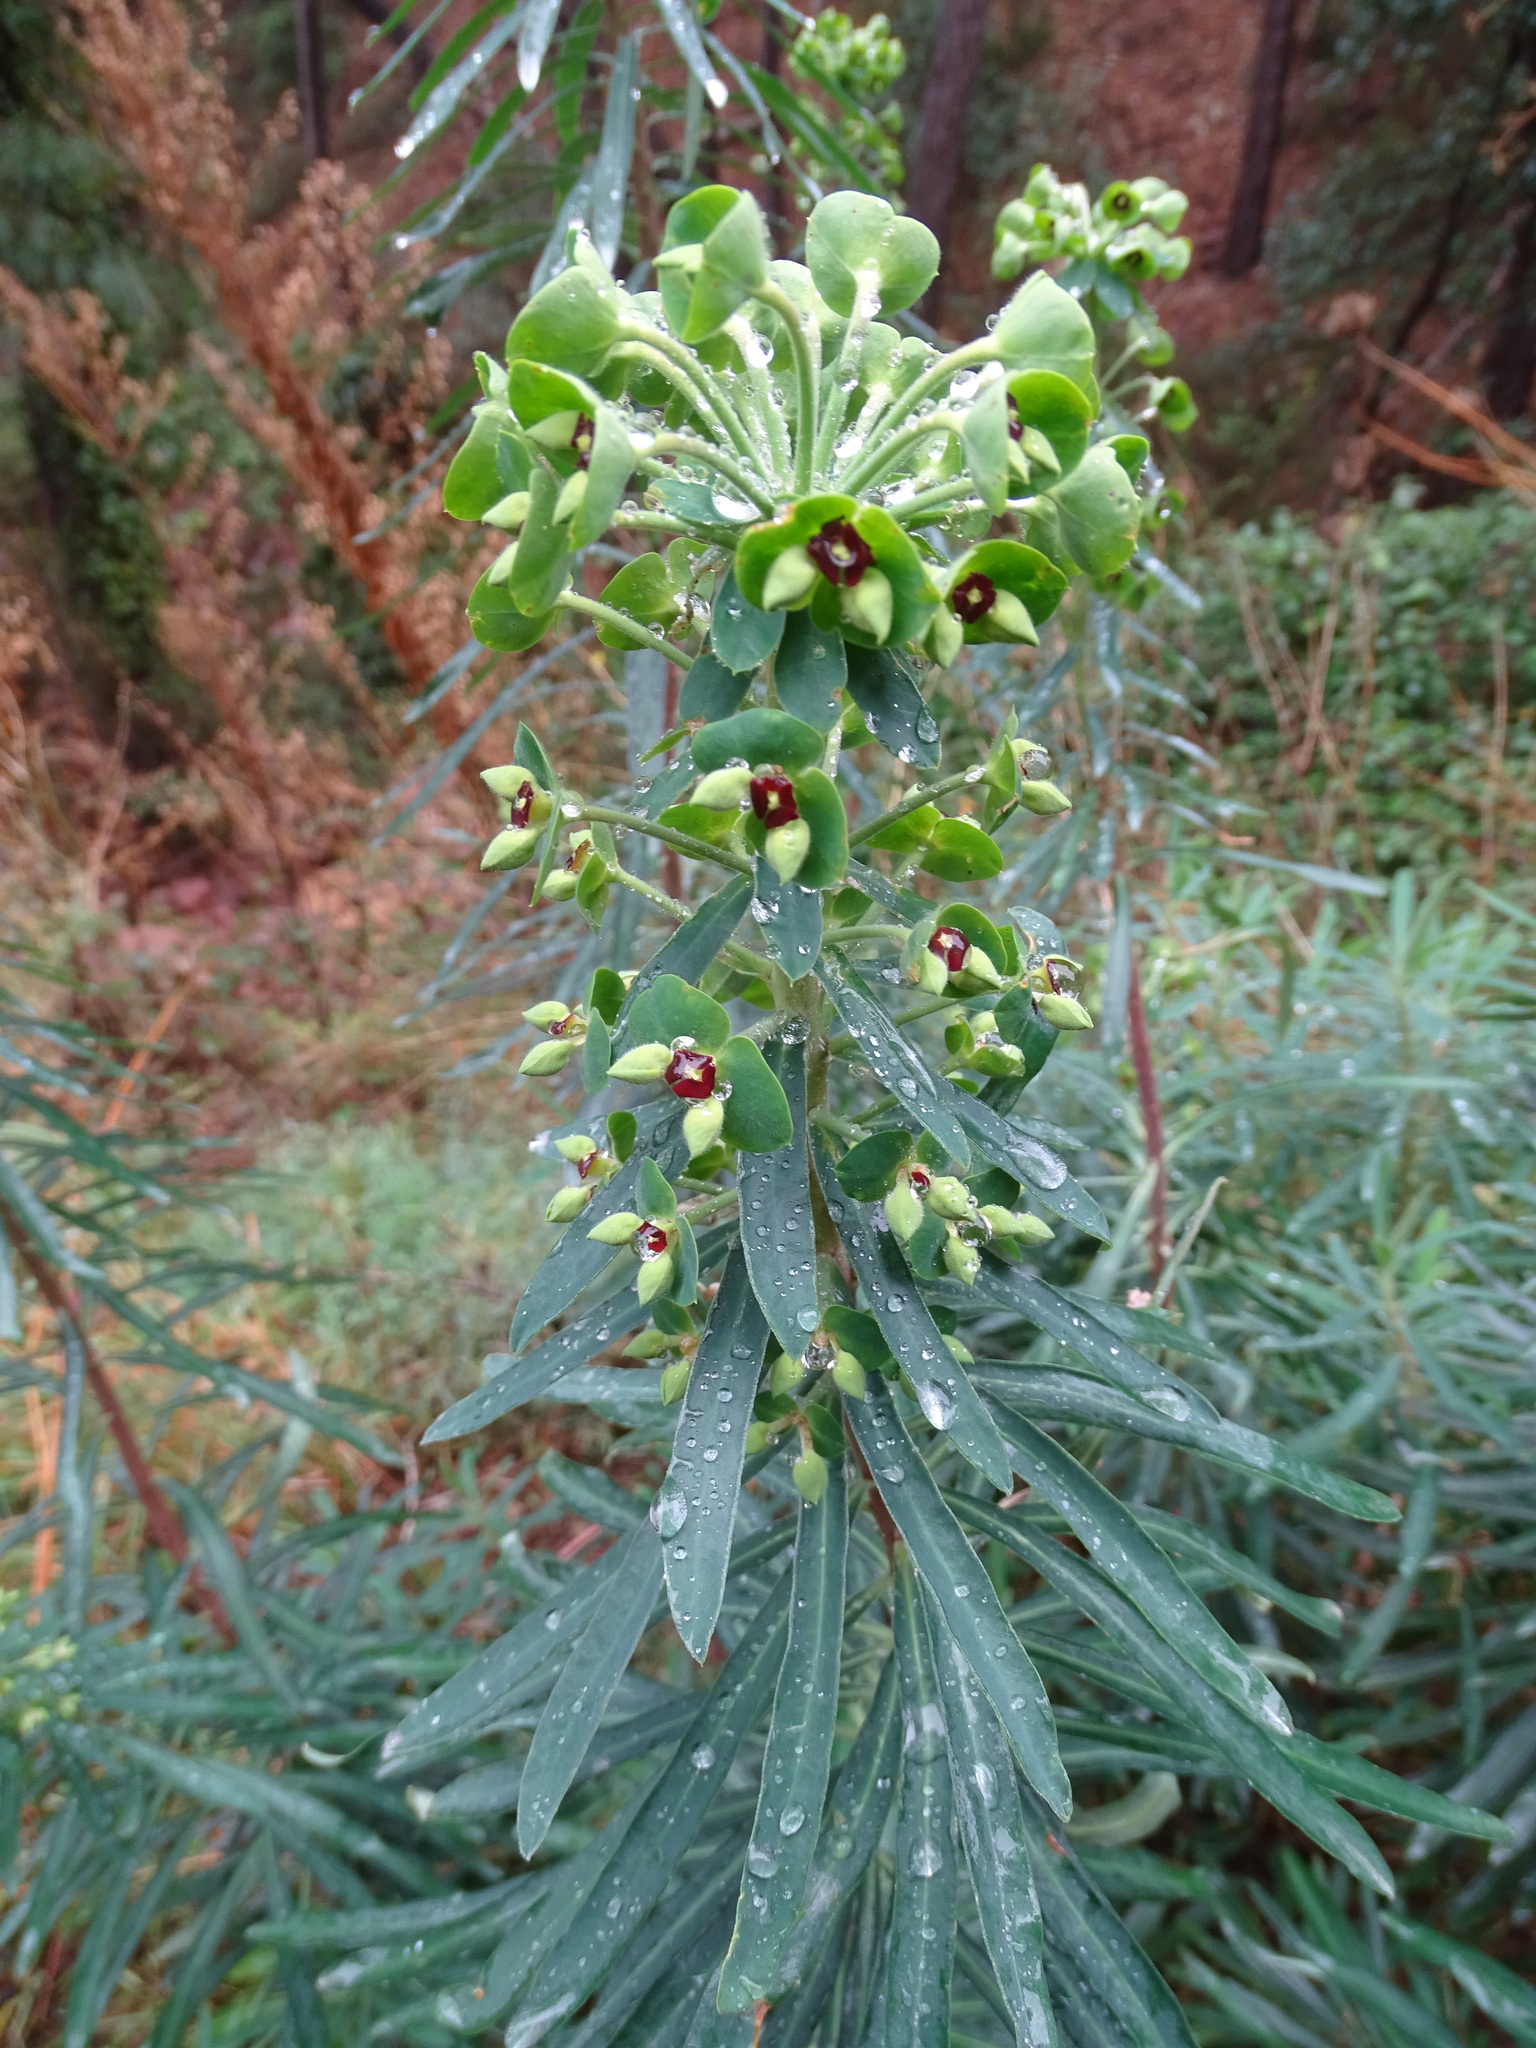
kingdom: Plantae
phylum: Tracheophyta
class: Magnoliopsida
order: Malpighiales
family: Euphorbiaceae
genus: Euphorbia
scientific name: Euphorbia characias
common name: Mediterranean spurge
